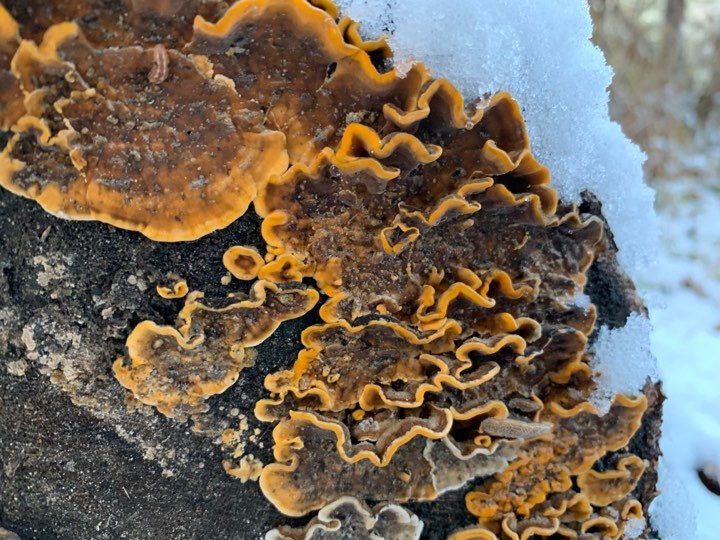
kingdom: Fungi
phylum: Basidiomycota
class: Agaricomycetes
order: Russulales
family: Stereaceae
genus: Stereum
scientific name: Stereum hirsutum
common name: Hairy curtain crust
